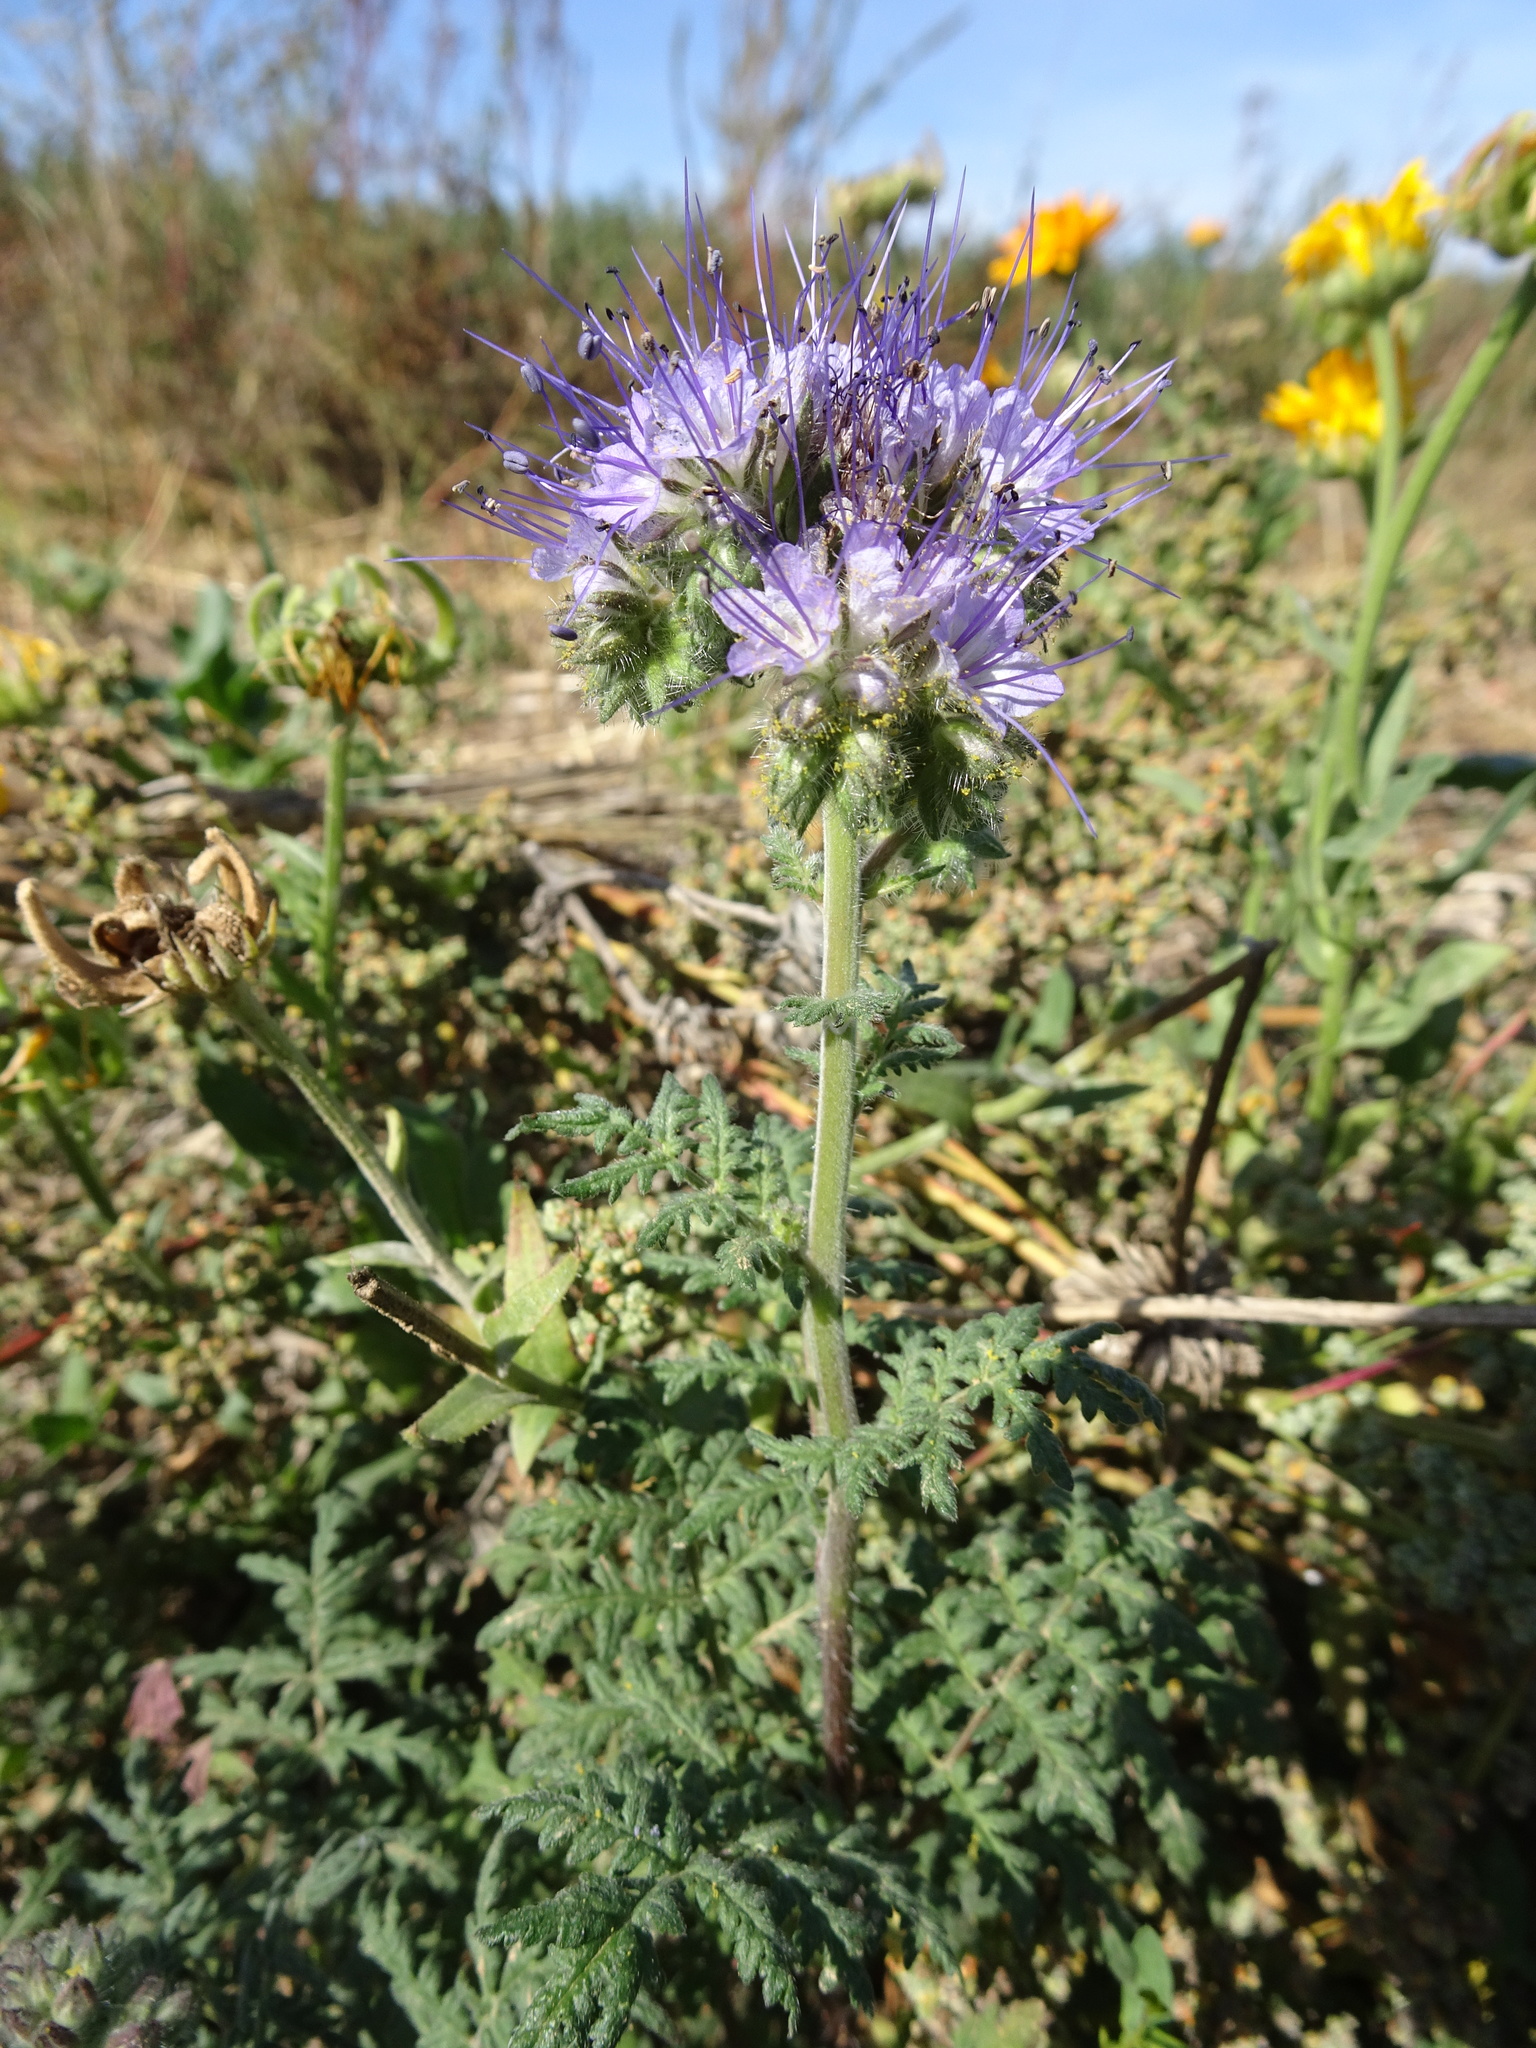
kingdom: Plantae
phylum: Tracheophyta
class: Magnoliopsida
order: Boraginales
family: Hydrophyllaceae
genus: Phacelia
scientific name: Phacelia tanacetifolia
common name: Phacelia
